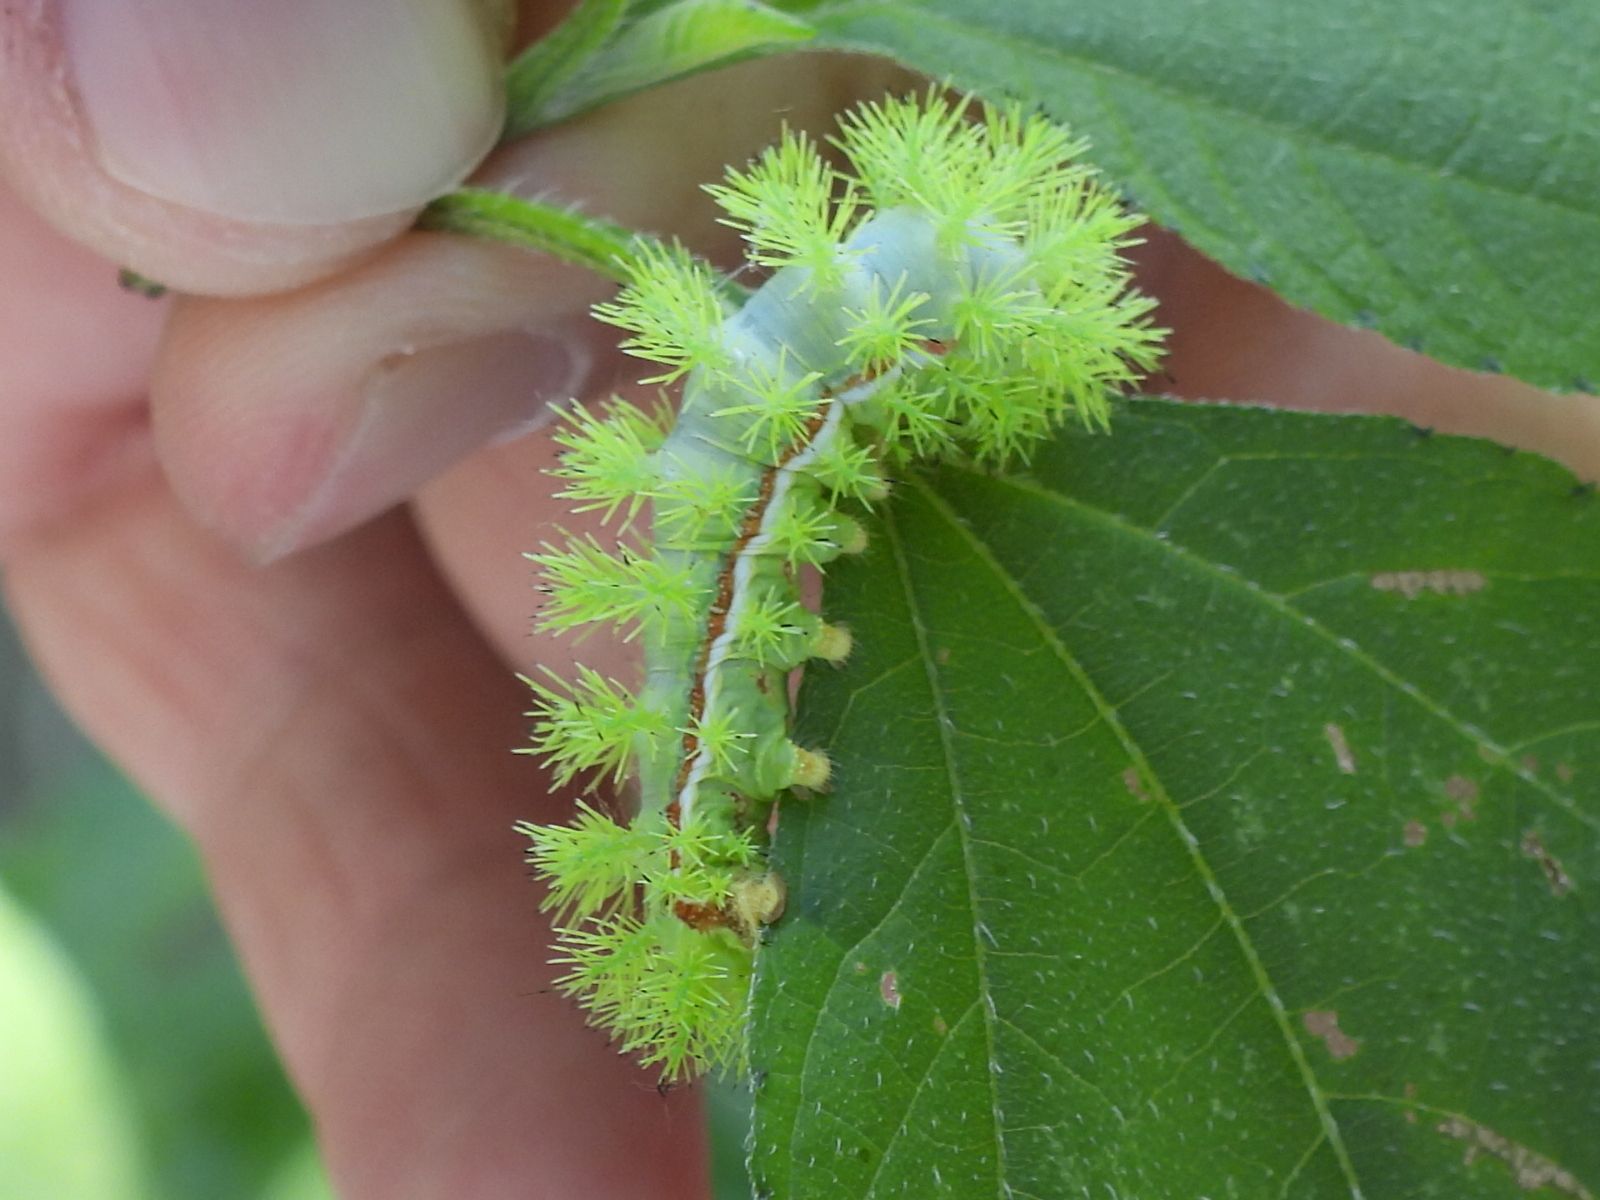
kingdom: Animalia
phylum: Arthropoda
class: Insecta
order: Lepidoptera
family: Saturniidae
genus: Automeris
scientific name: Automeris io
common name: Io moth
